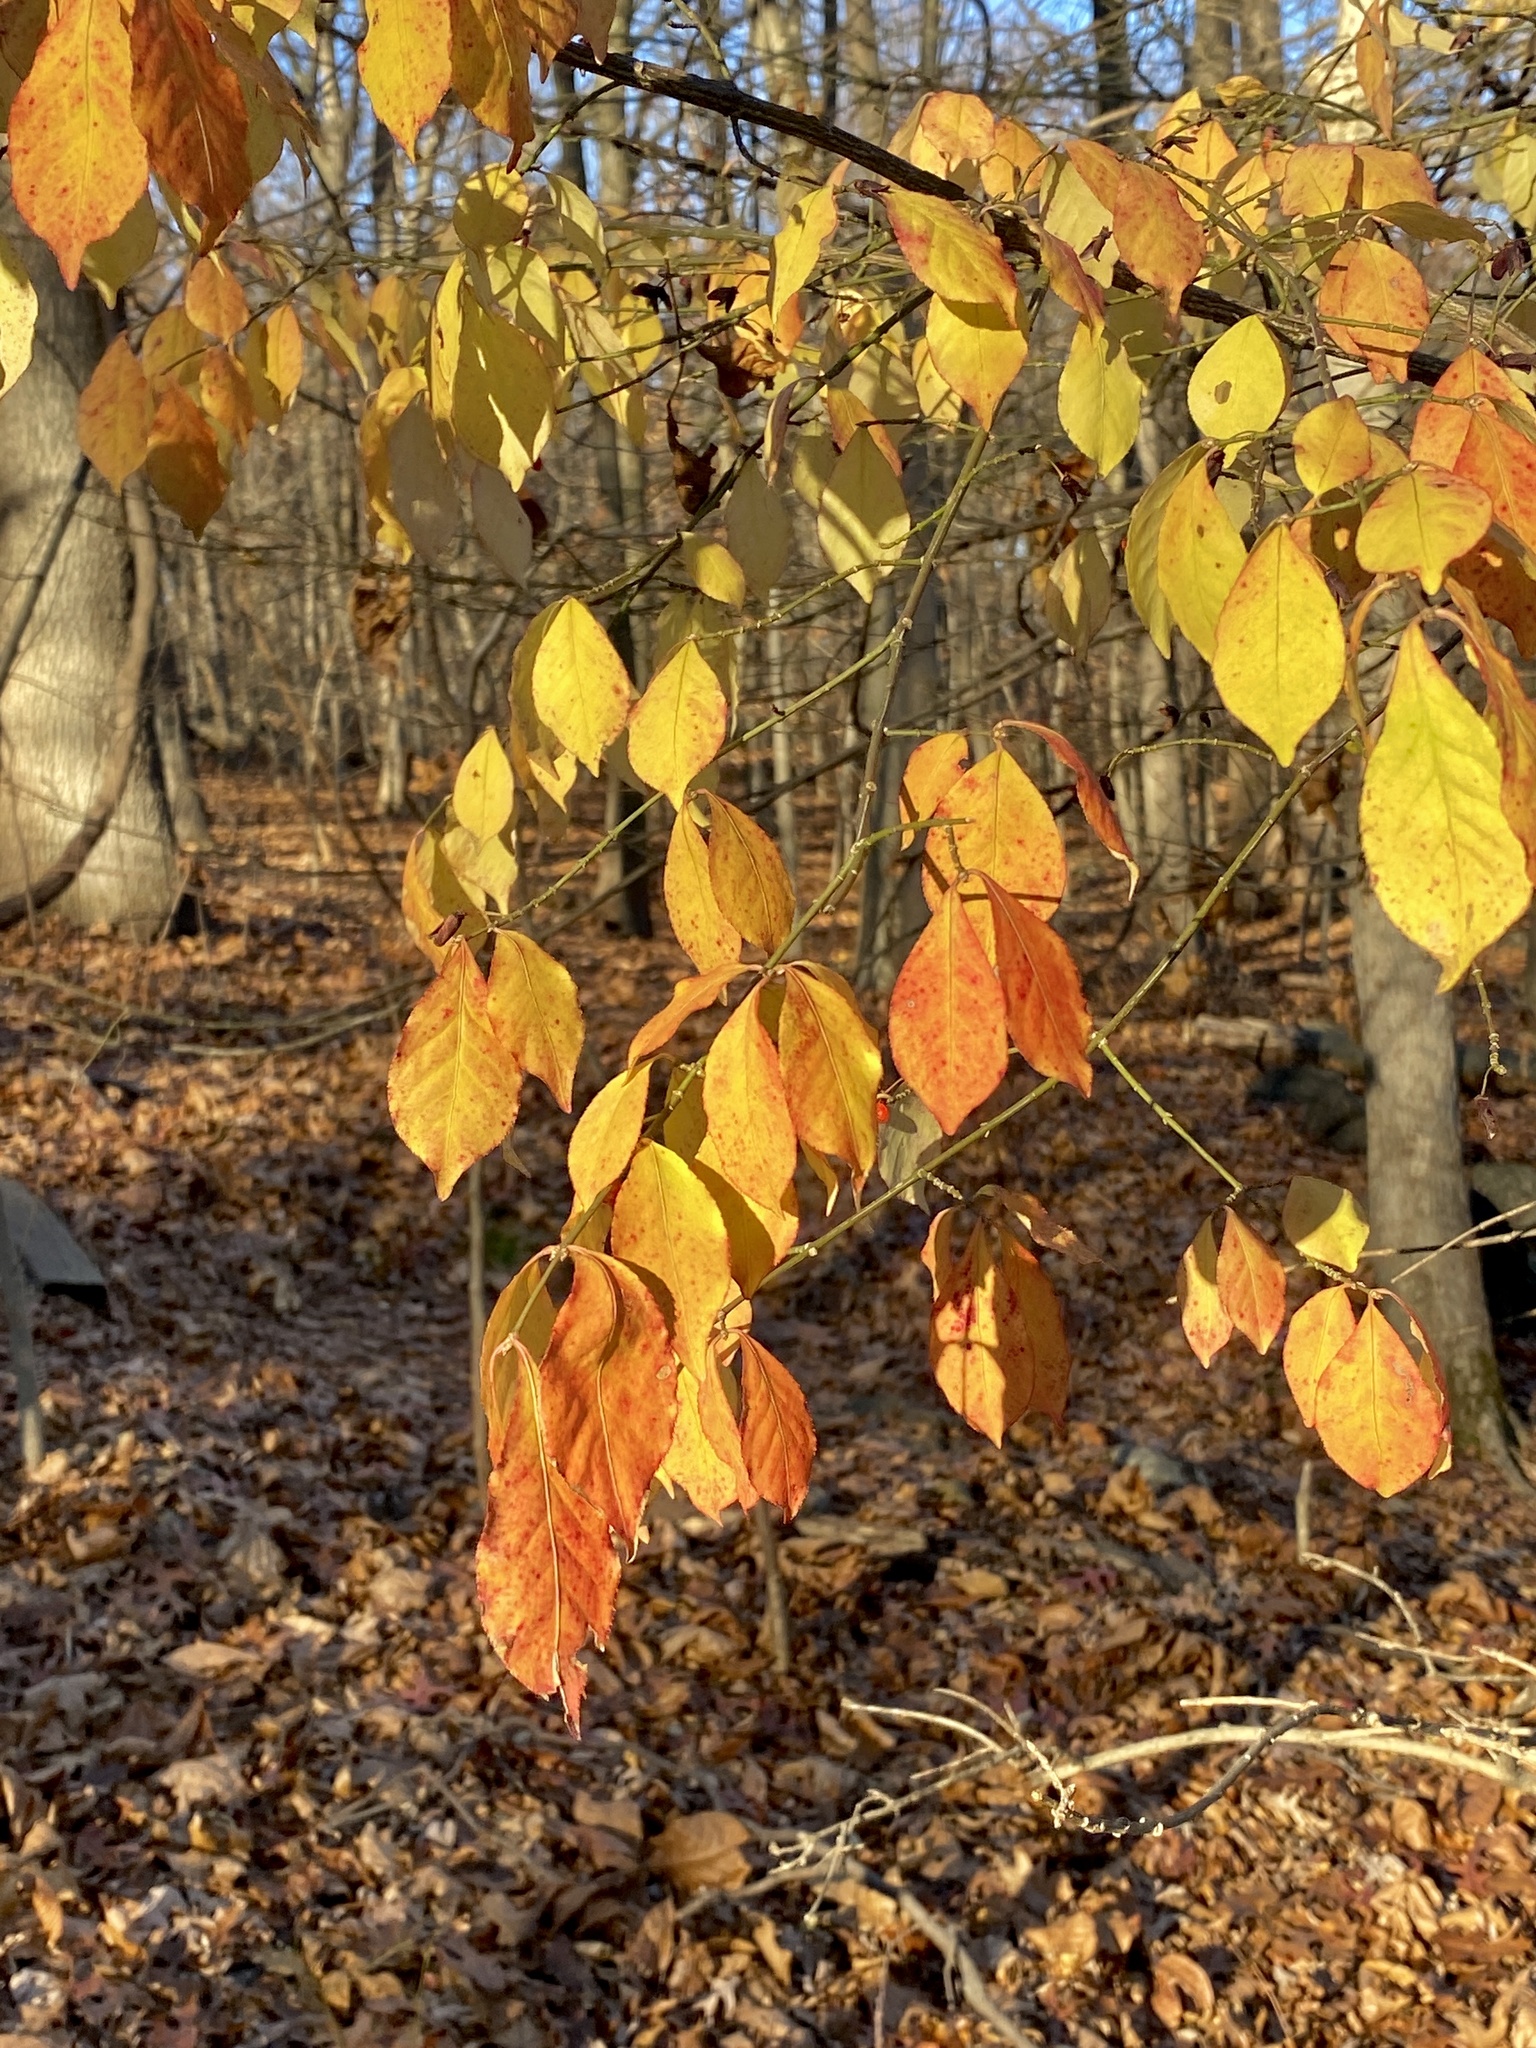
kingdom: Plantae
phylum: Tracheophyta
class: Magnoliopsida
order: Celastrales
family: Celastraceae
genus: Euonymus
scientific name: Euonymus alatus
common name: Winged euonymus
